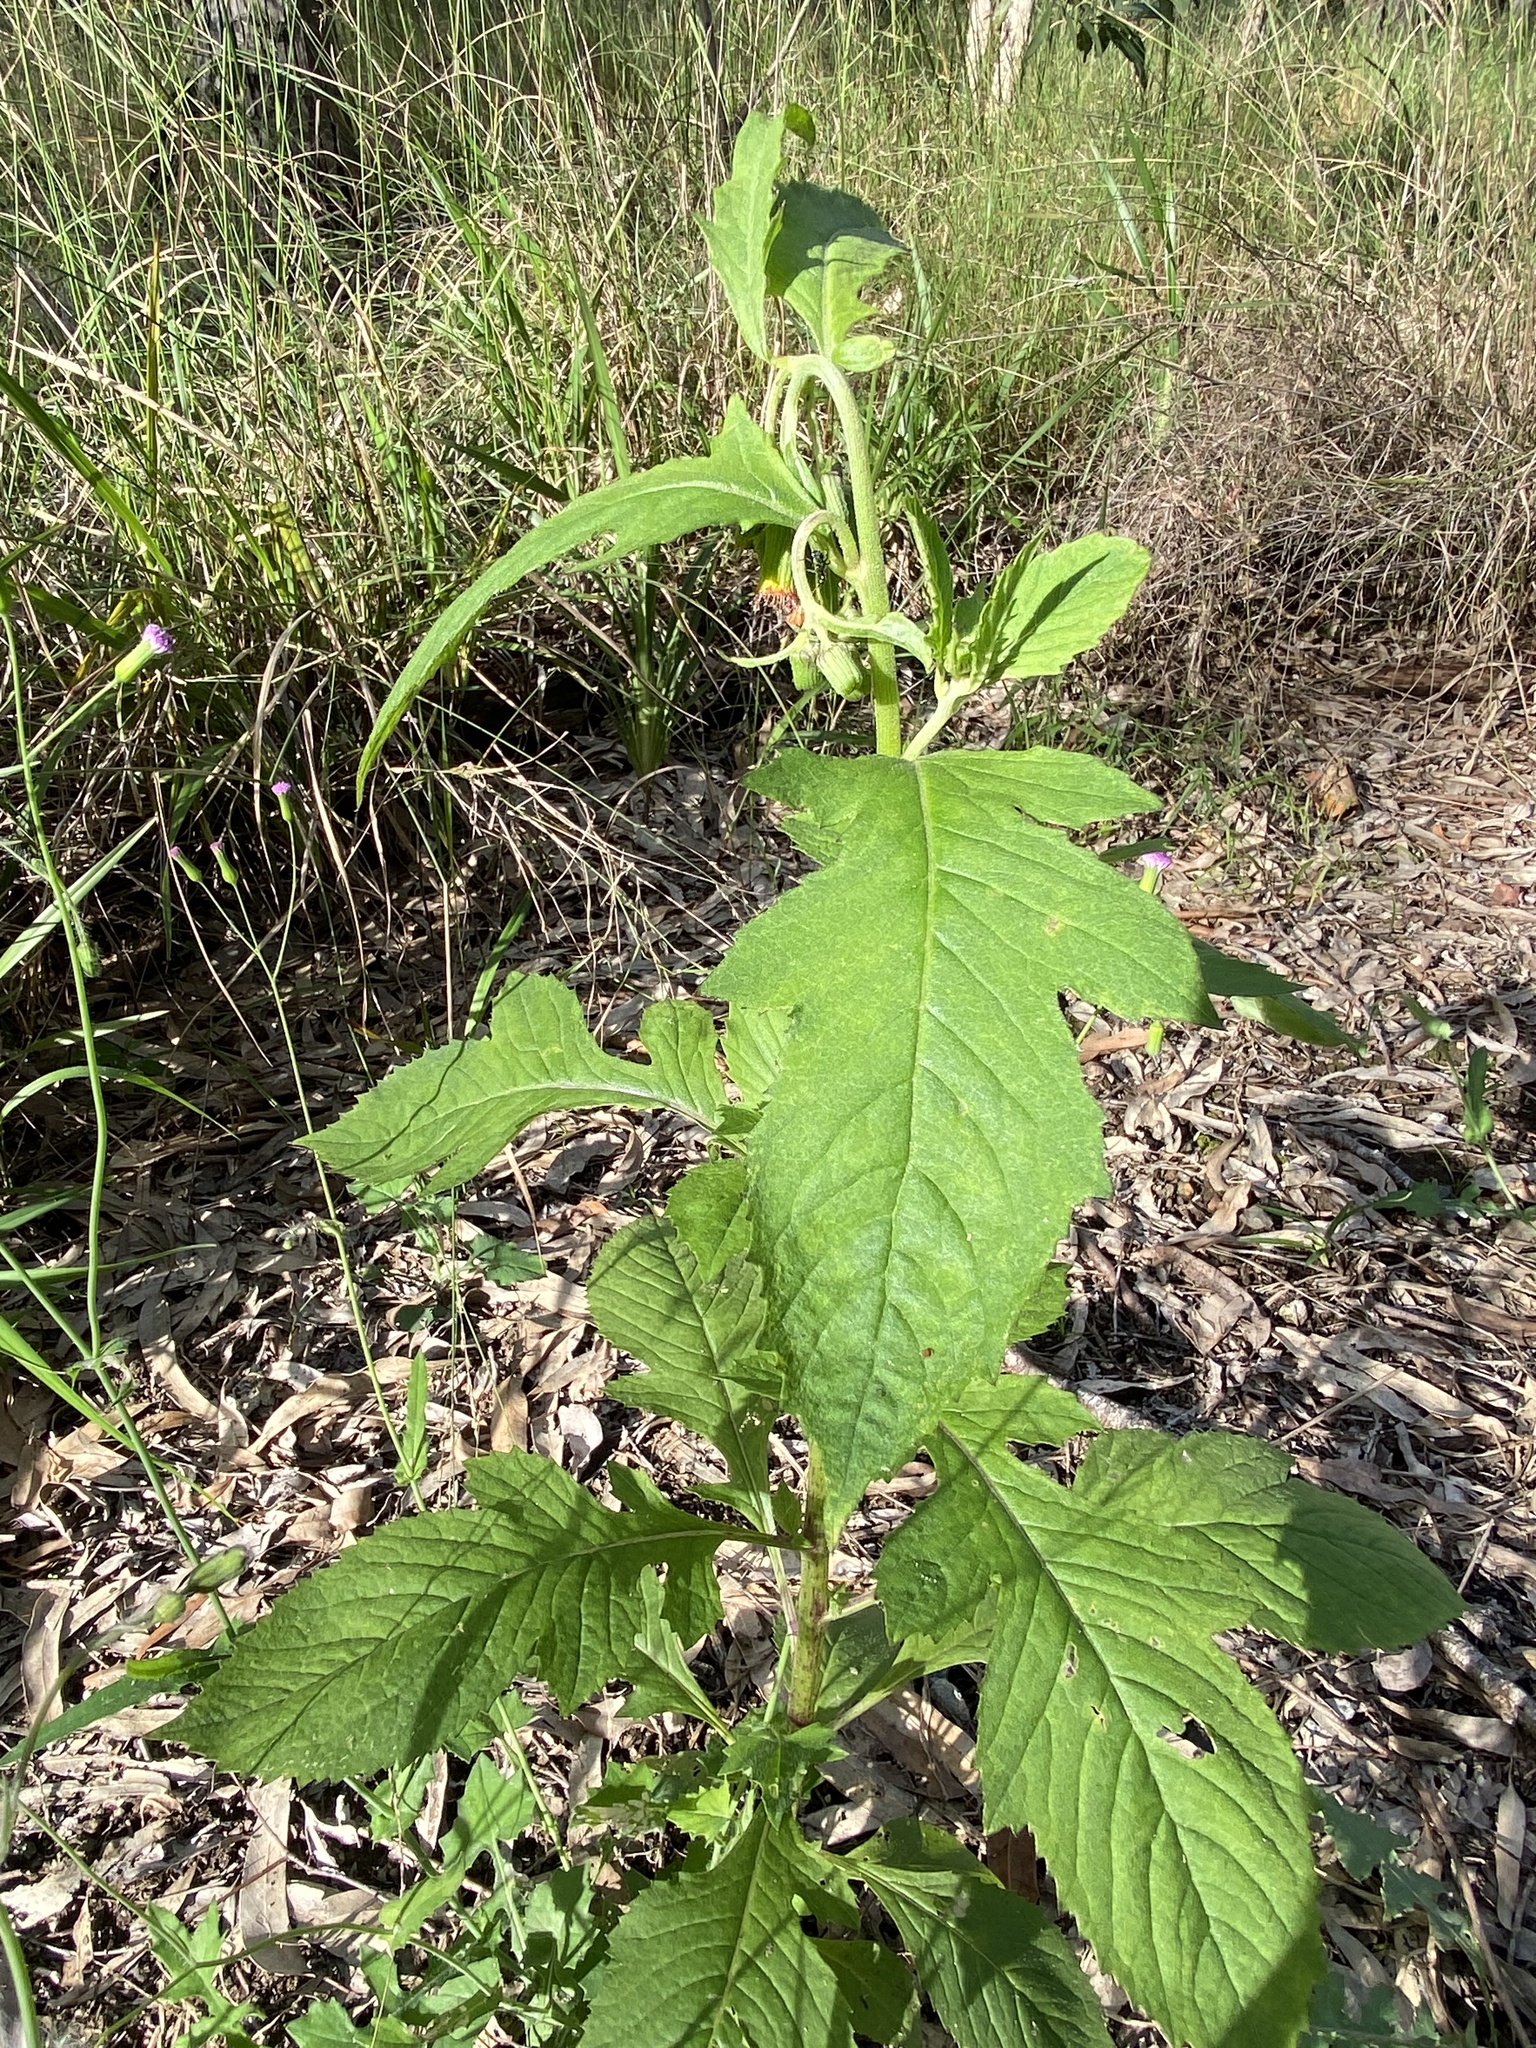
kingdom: Plantae
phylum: Tracheophyta
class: Magnoliopsida
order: Asterales
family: Asteraceae
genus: Crassocephalum
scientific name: Crassocephalum crepidioides
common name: Redflower ragleaf
